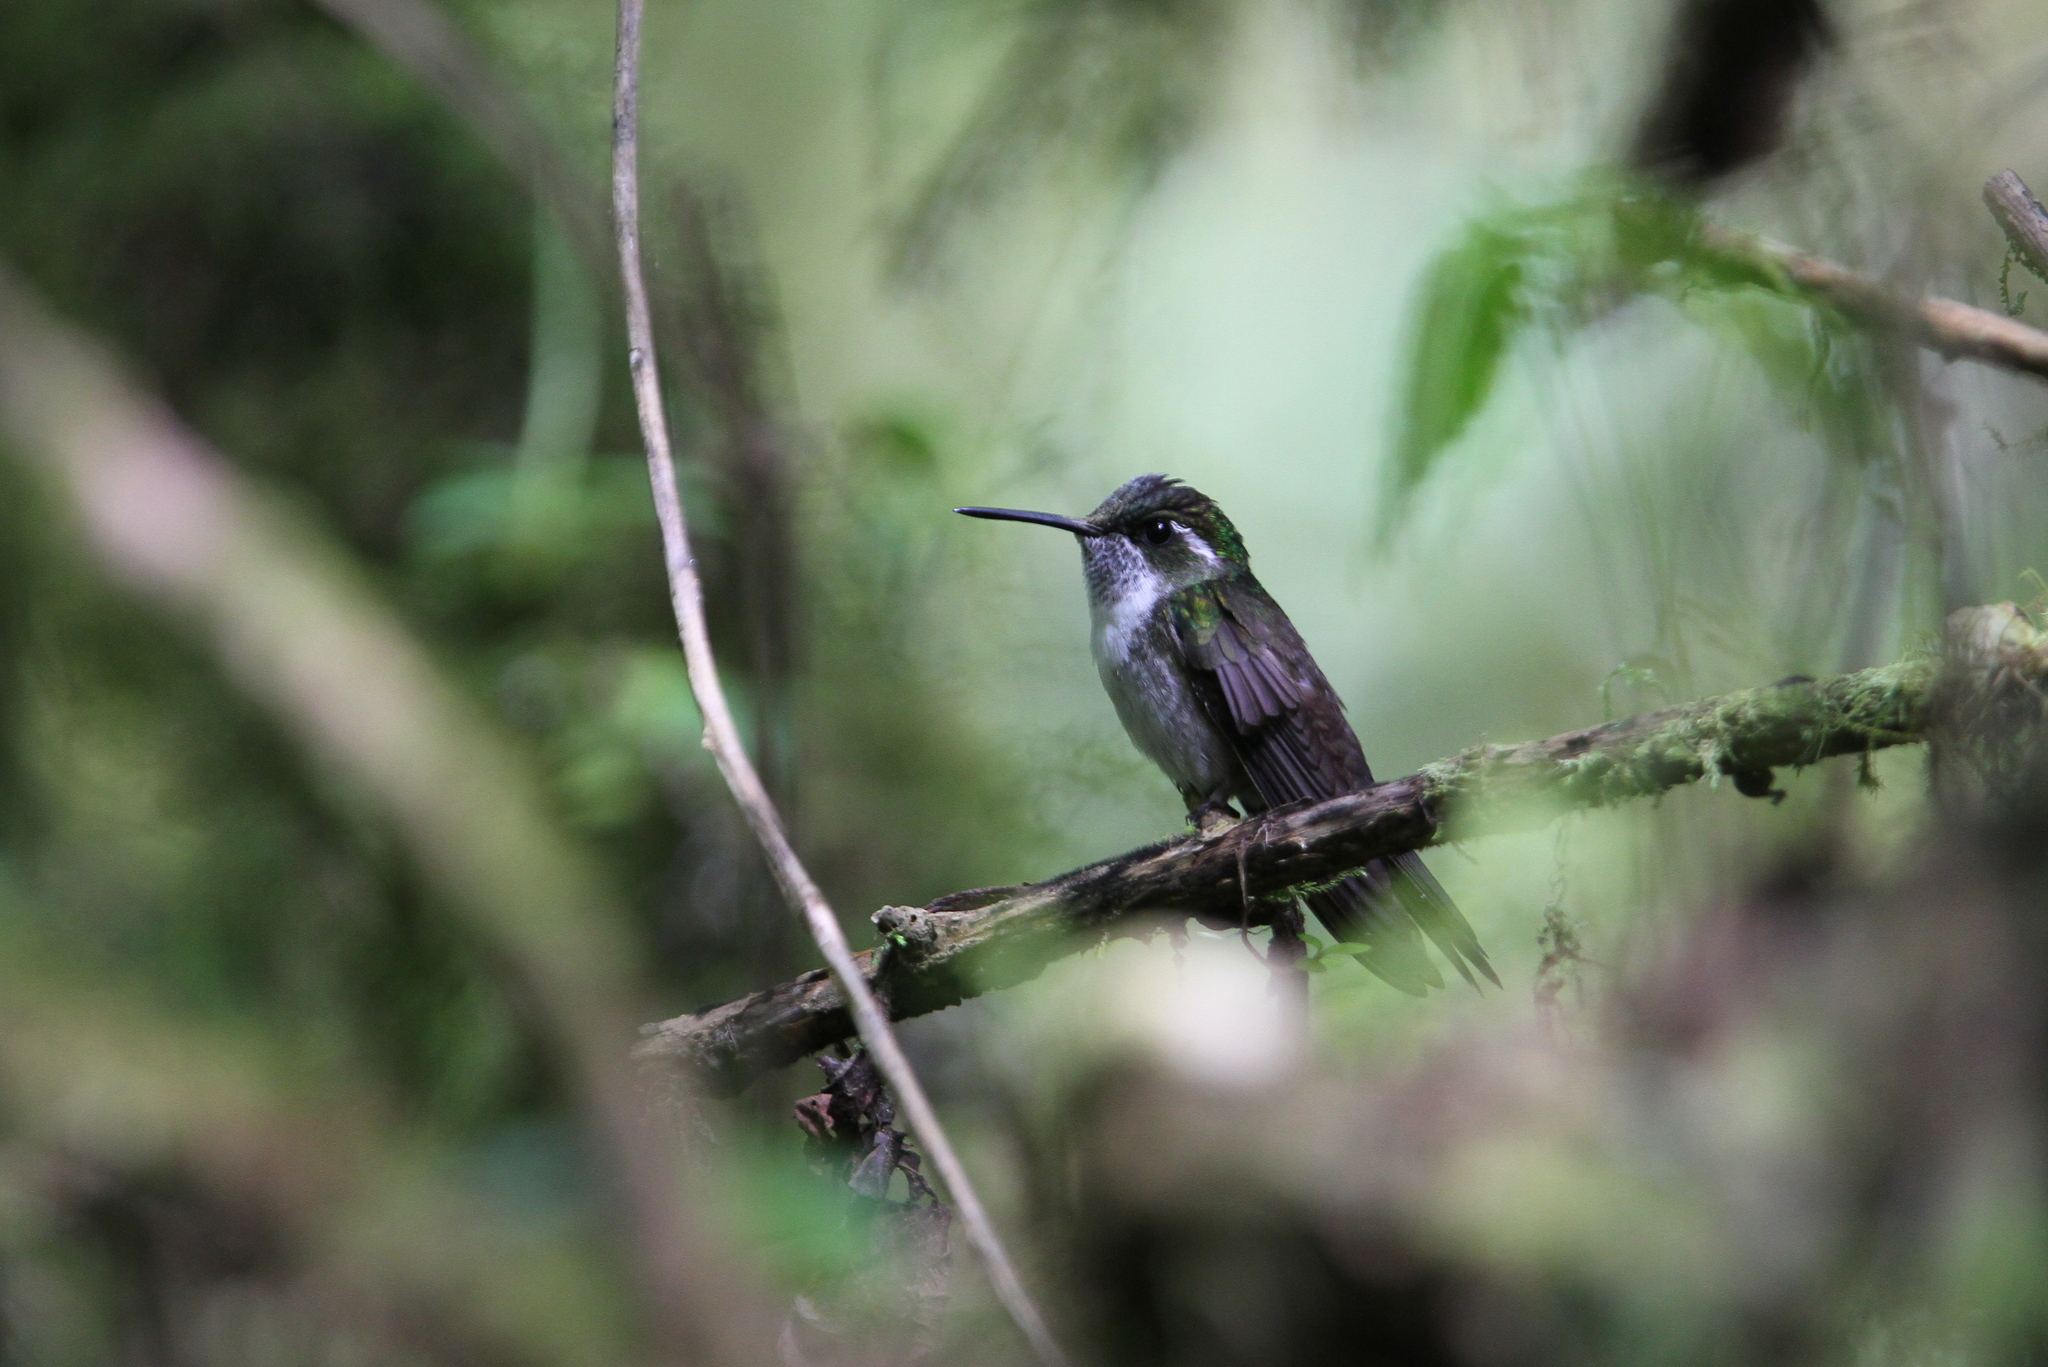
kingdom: Animalia
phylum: Chordata
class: Aves
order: Apodiformes
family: Trochilidae
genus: Lampornis
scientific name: Lampornis viridipallens
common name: Green-throated mountain-gem
